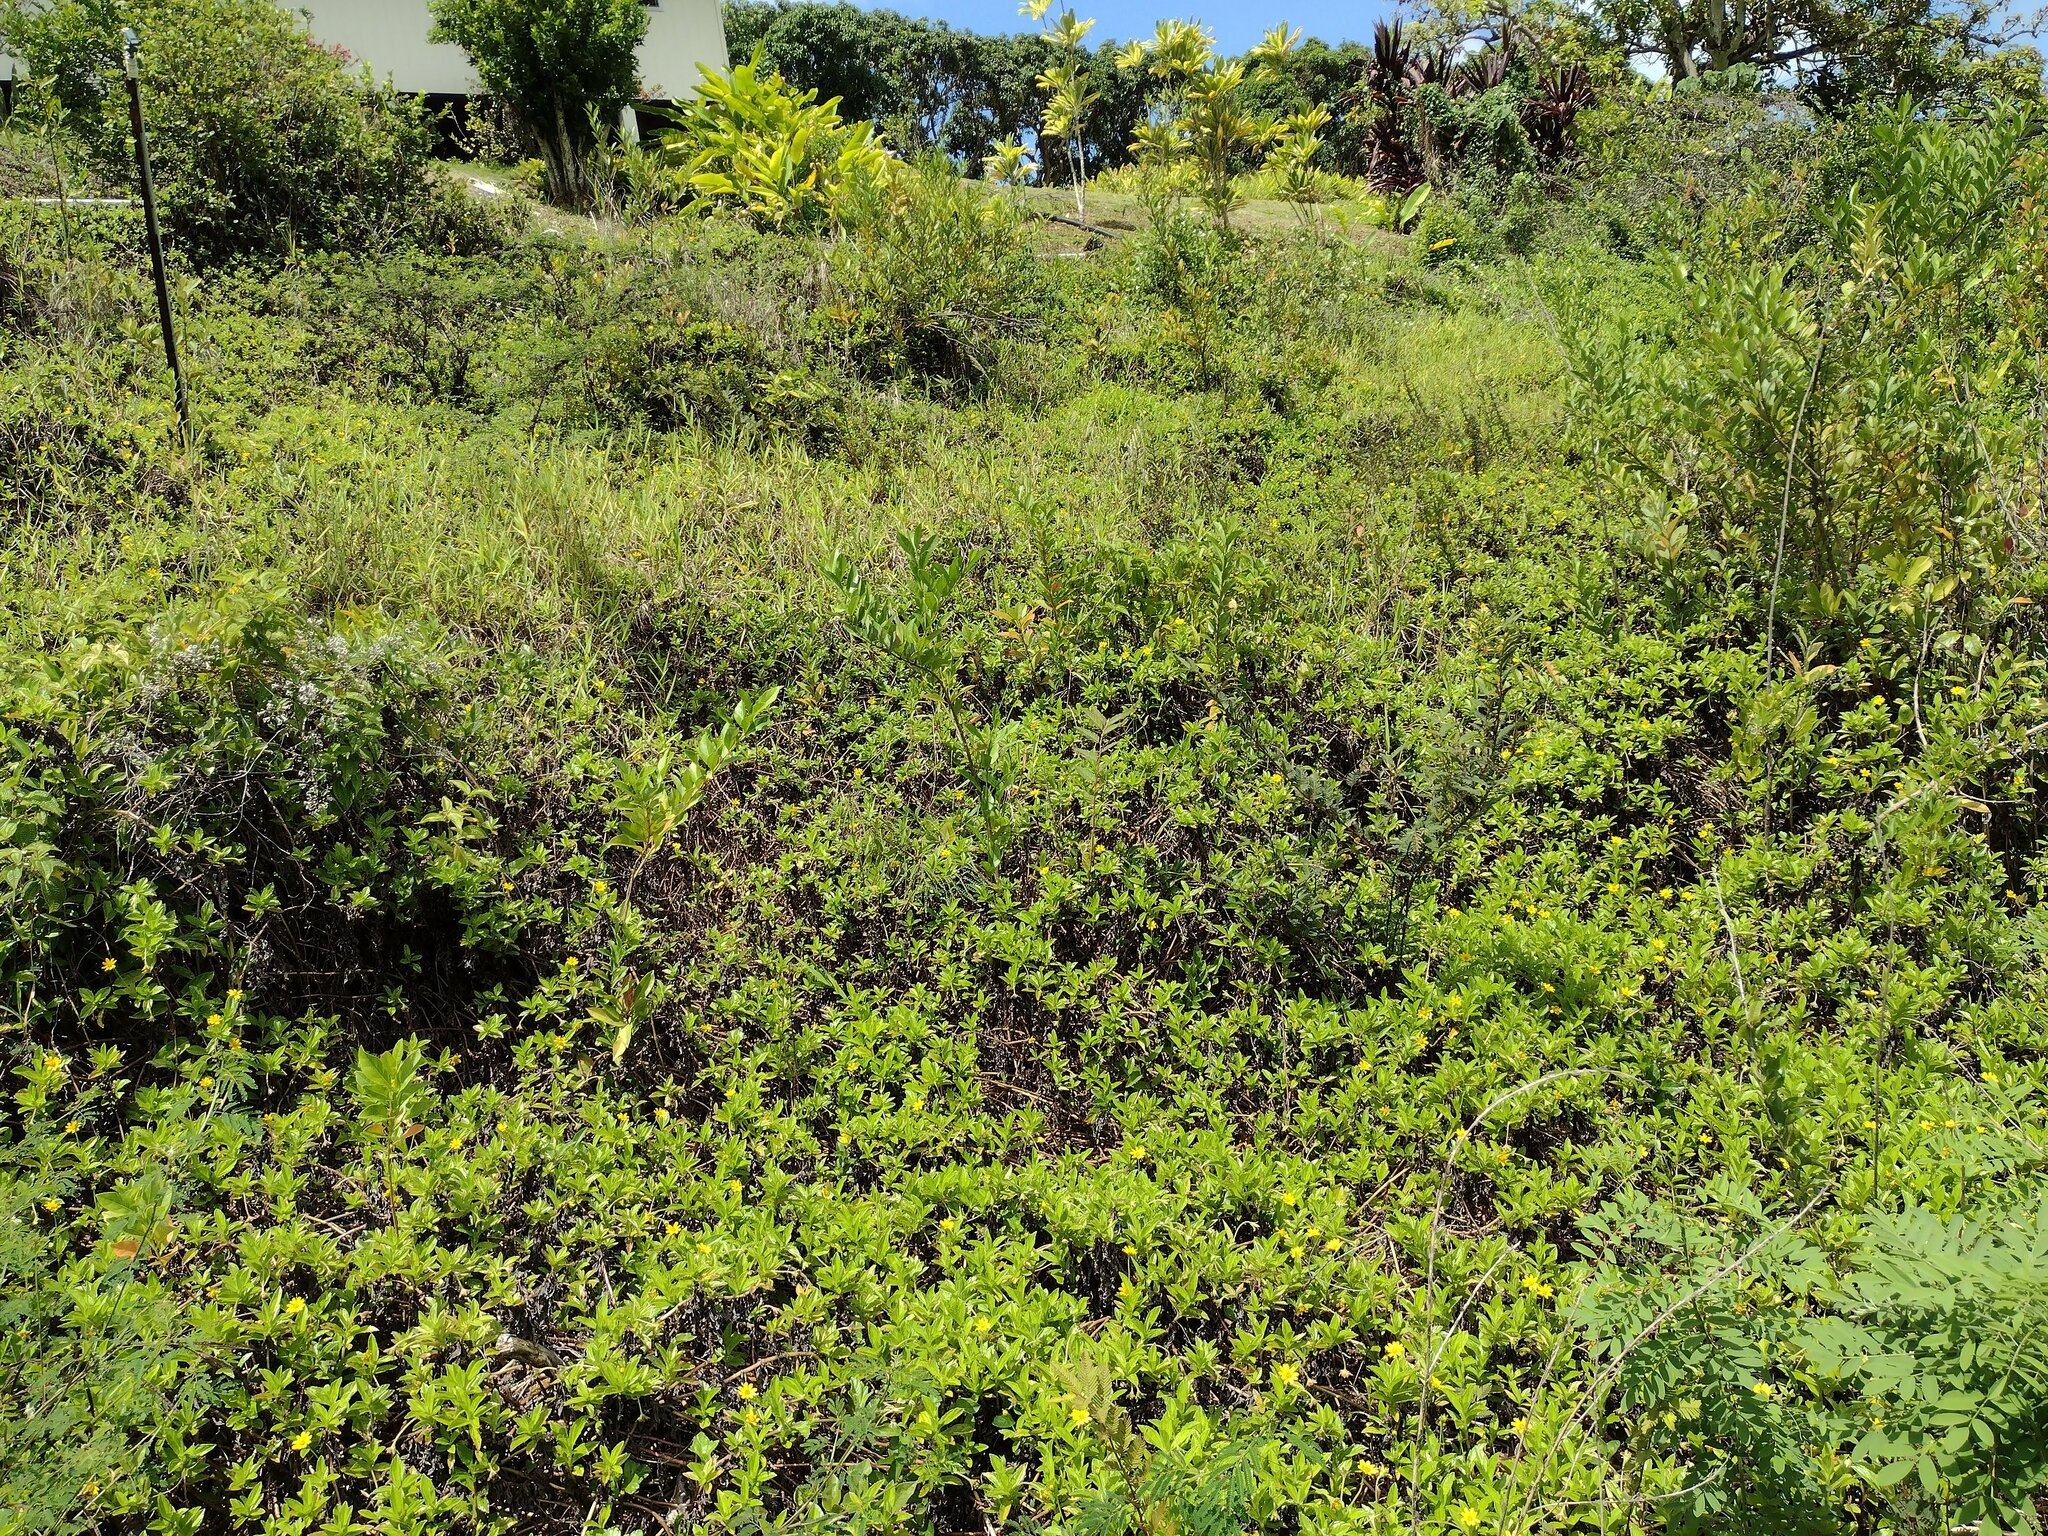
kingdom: Plantae
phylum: Tracheophyta
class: Magnoliopsida
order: Asterales
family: Asteraceae
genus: Sphagneticola
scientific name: Sphagneticola trilobata
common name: Bay biscayne creeping-oxeye
